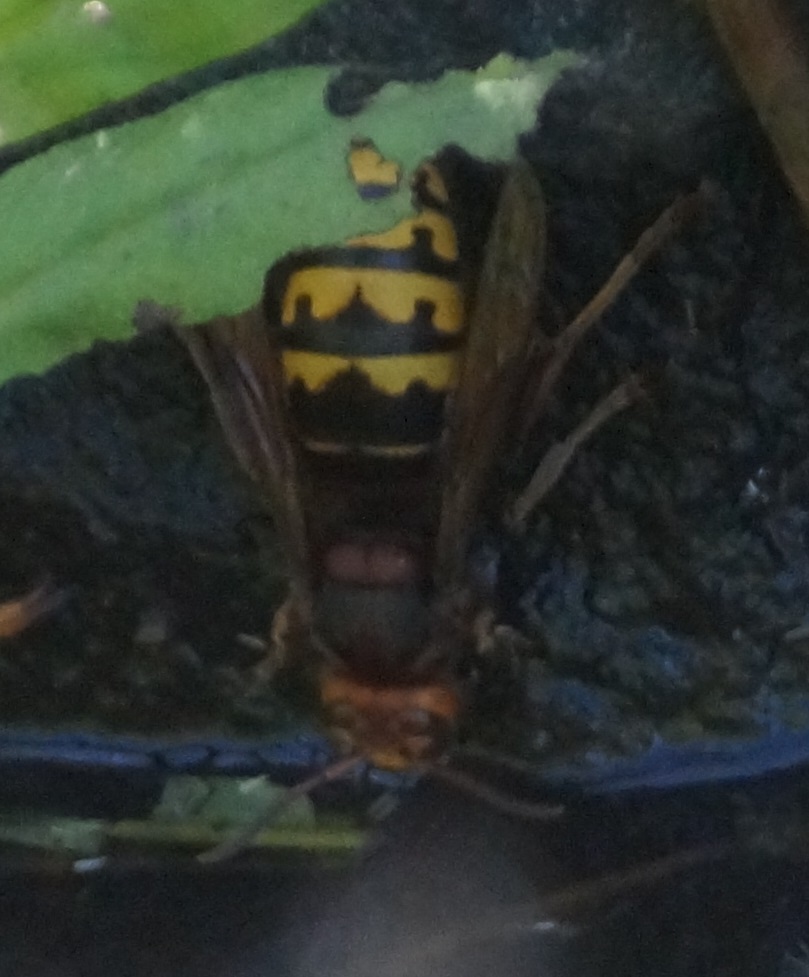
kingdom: Animalia
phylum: Arthropoda
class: Insecta
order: Hymenoptera
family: Vespidae
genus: Vespa
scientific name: Vespa crabro
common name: Hornet
